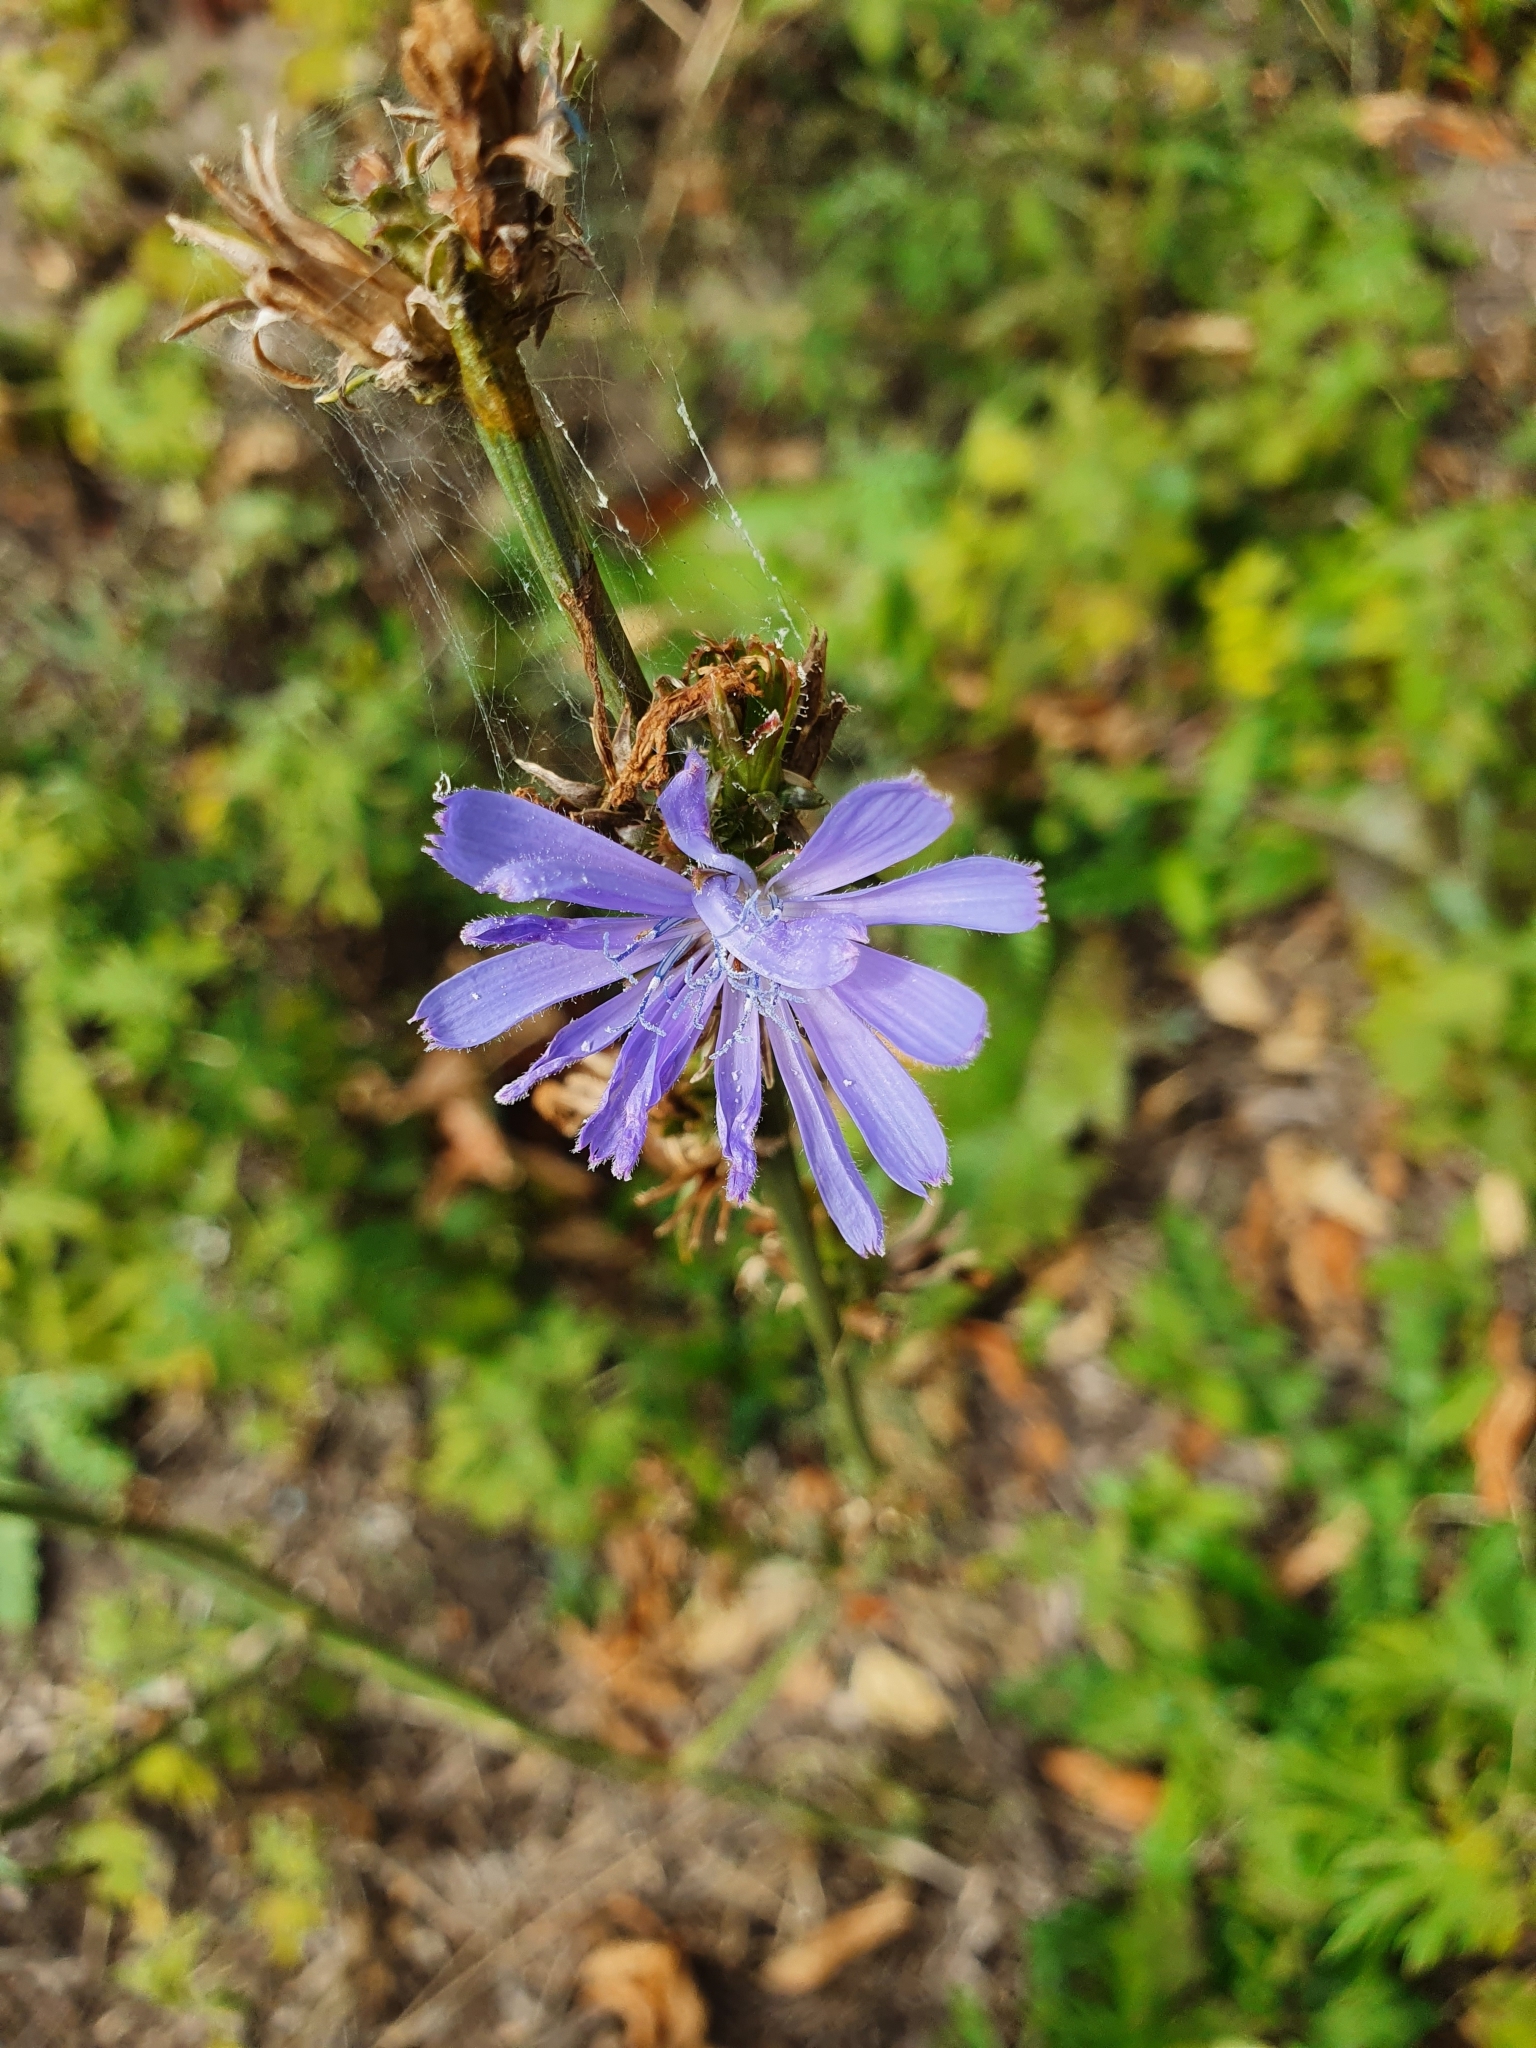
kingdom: Plantae
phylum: Tracheophyta
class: Magnoliopsida
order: Asterales
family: Asteraceae
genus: Cichorium
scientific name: Cichorium intybus
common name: Chicory
